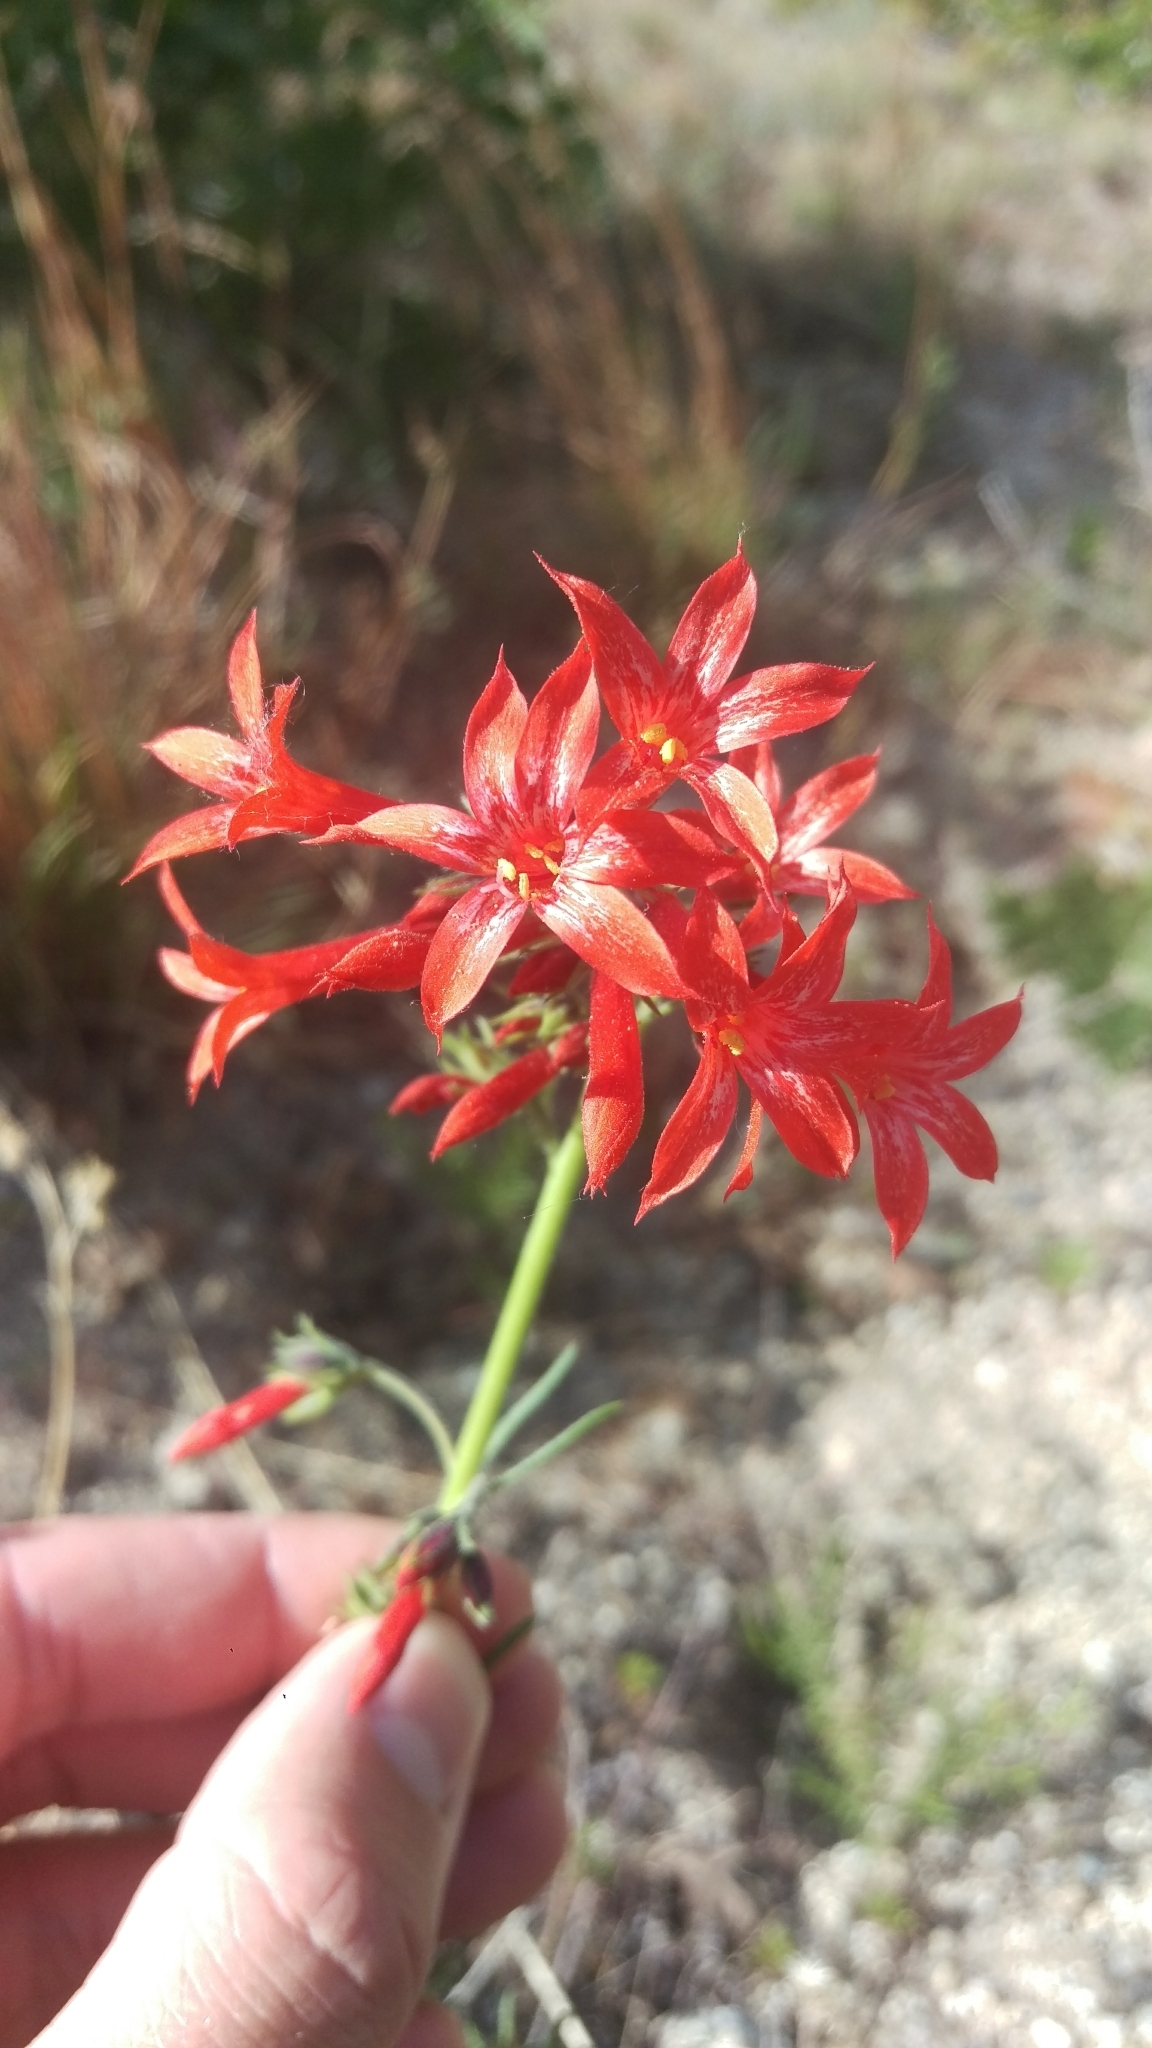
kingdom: Plantae
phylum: Tracheophyta
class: Magnoliopsida
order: Ericales
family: Polemoniaceae
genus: Ipomopsis
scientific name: Ipomopsis aggregata
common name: Scarlet gilia
